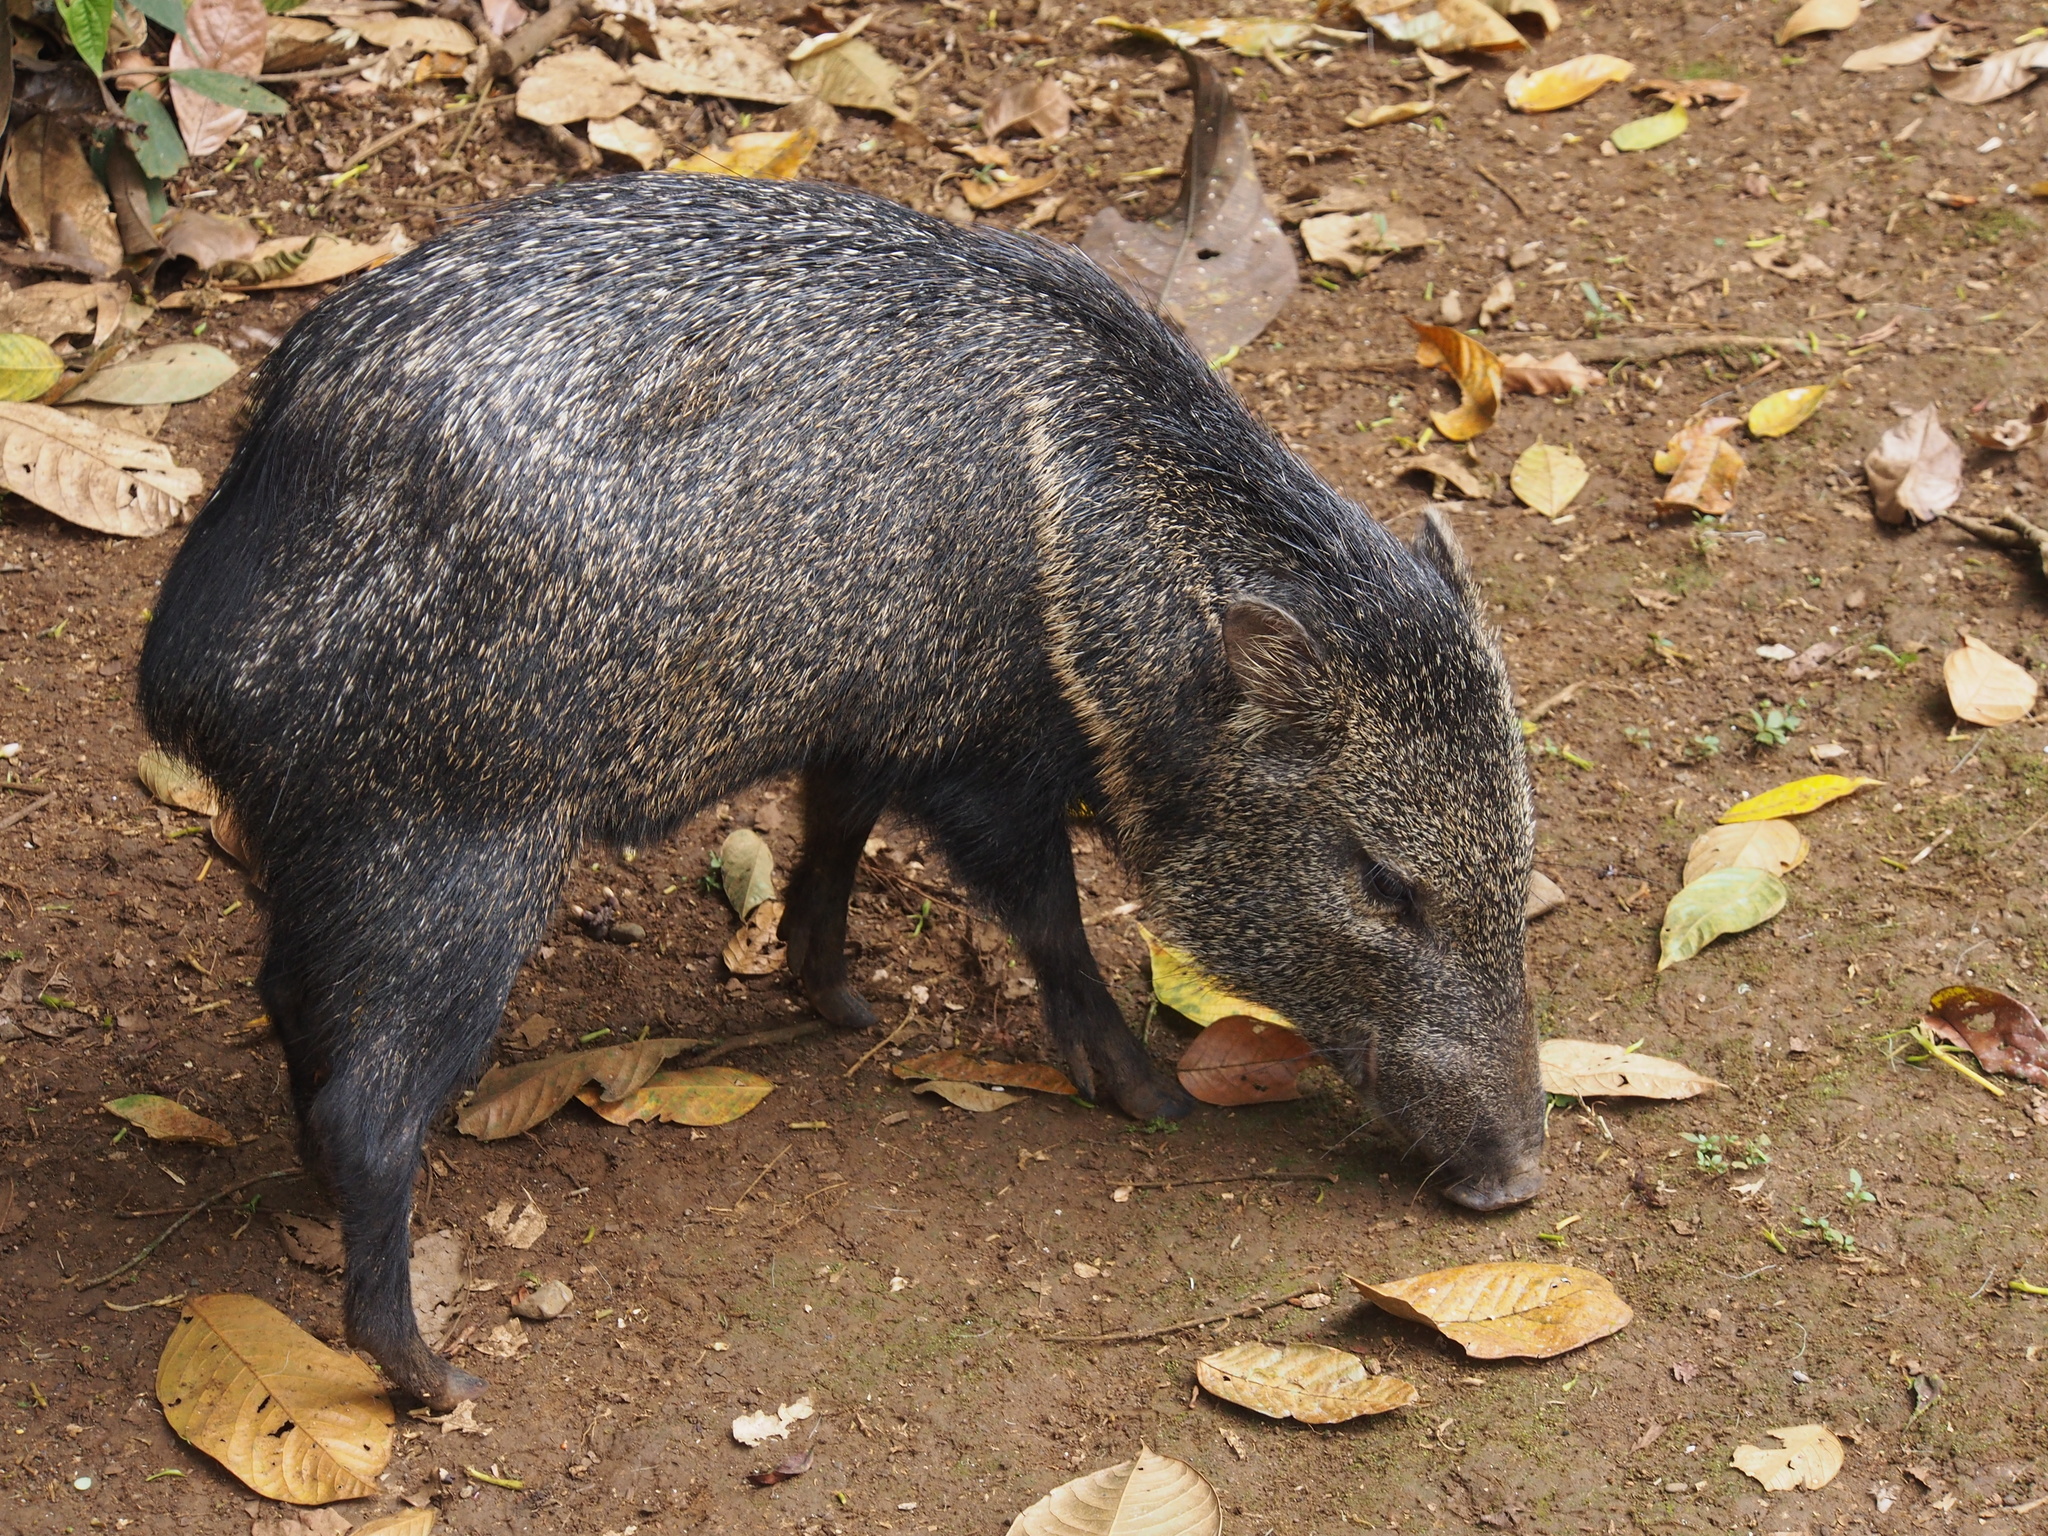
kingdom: Animalia
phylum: Chordata
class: Mammalia
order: Artiodactyla
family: Tayassuidae
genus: Pecari
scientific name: Pecari tajacu
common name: Collared peccary
